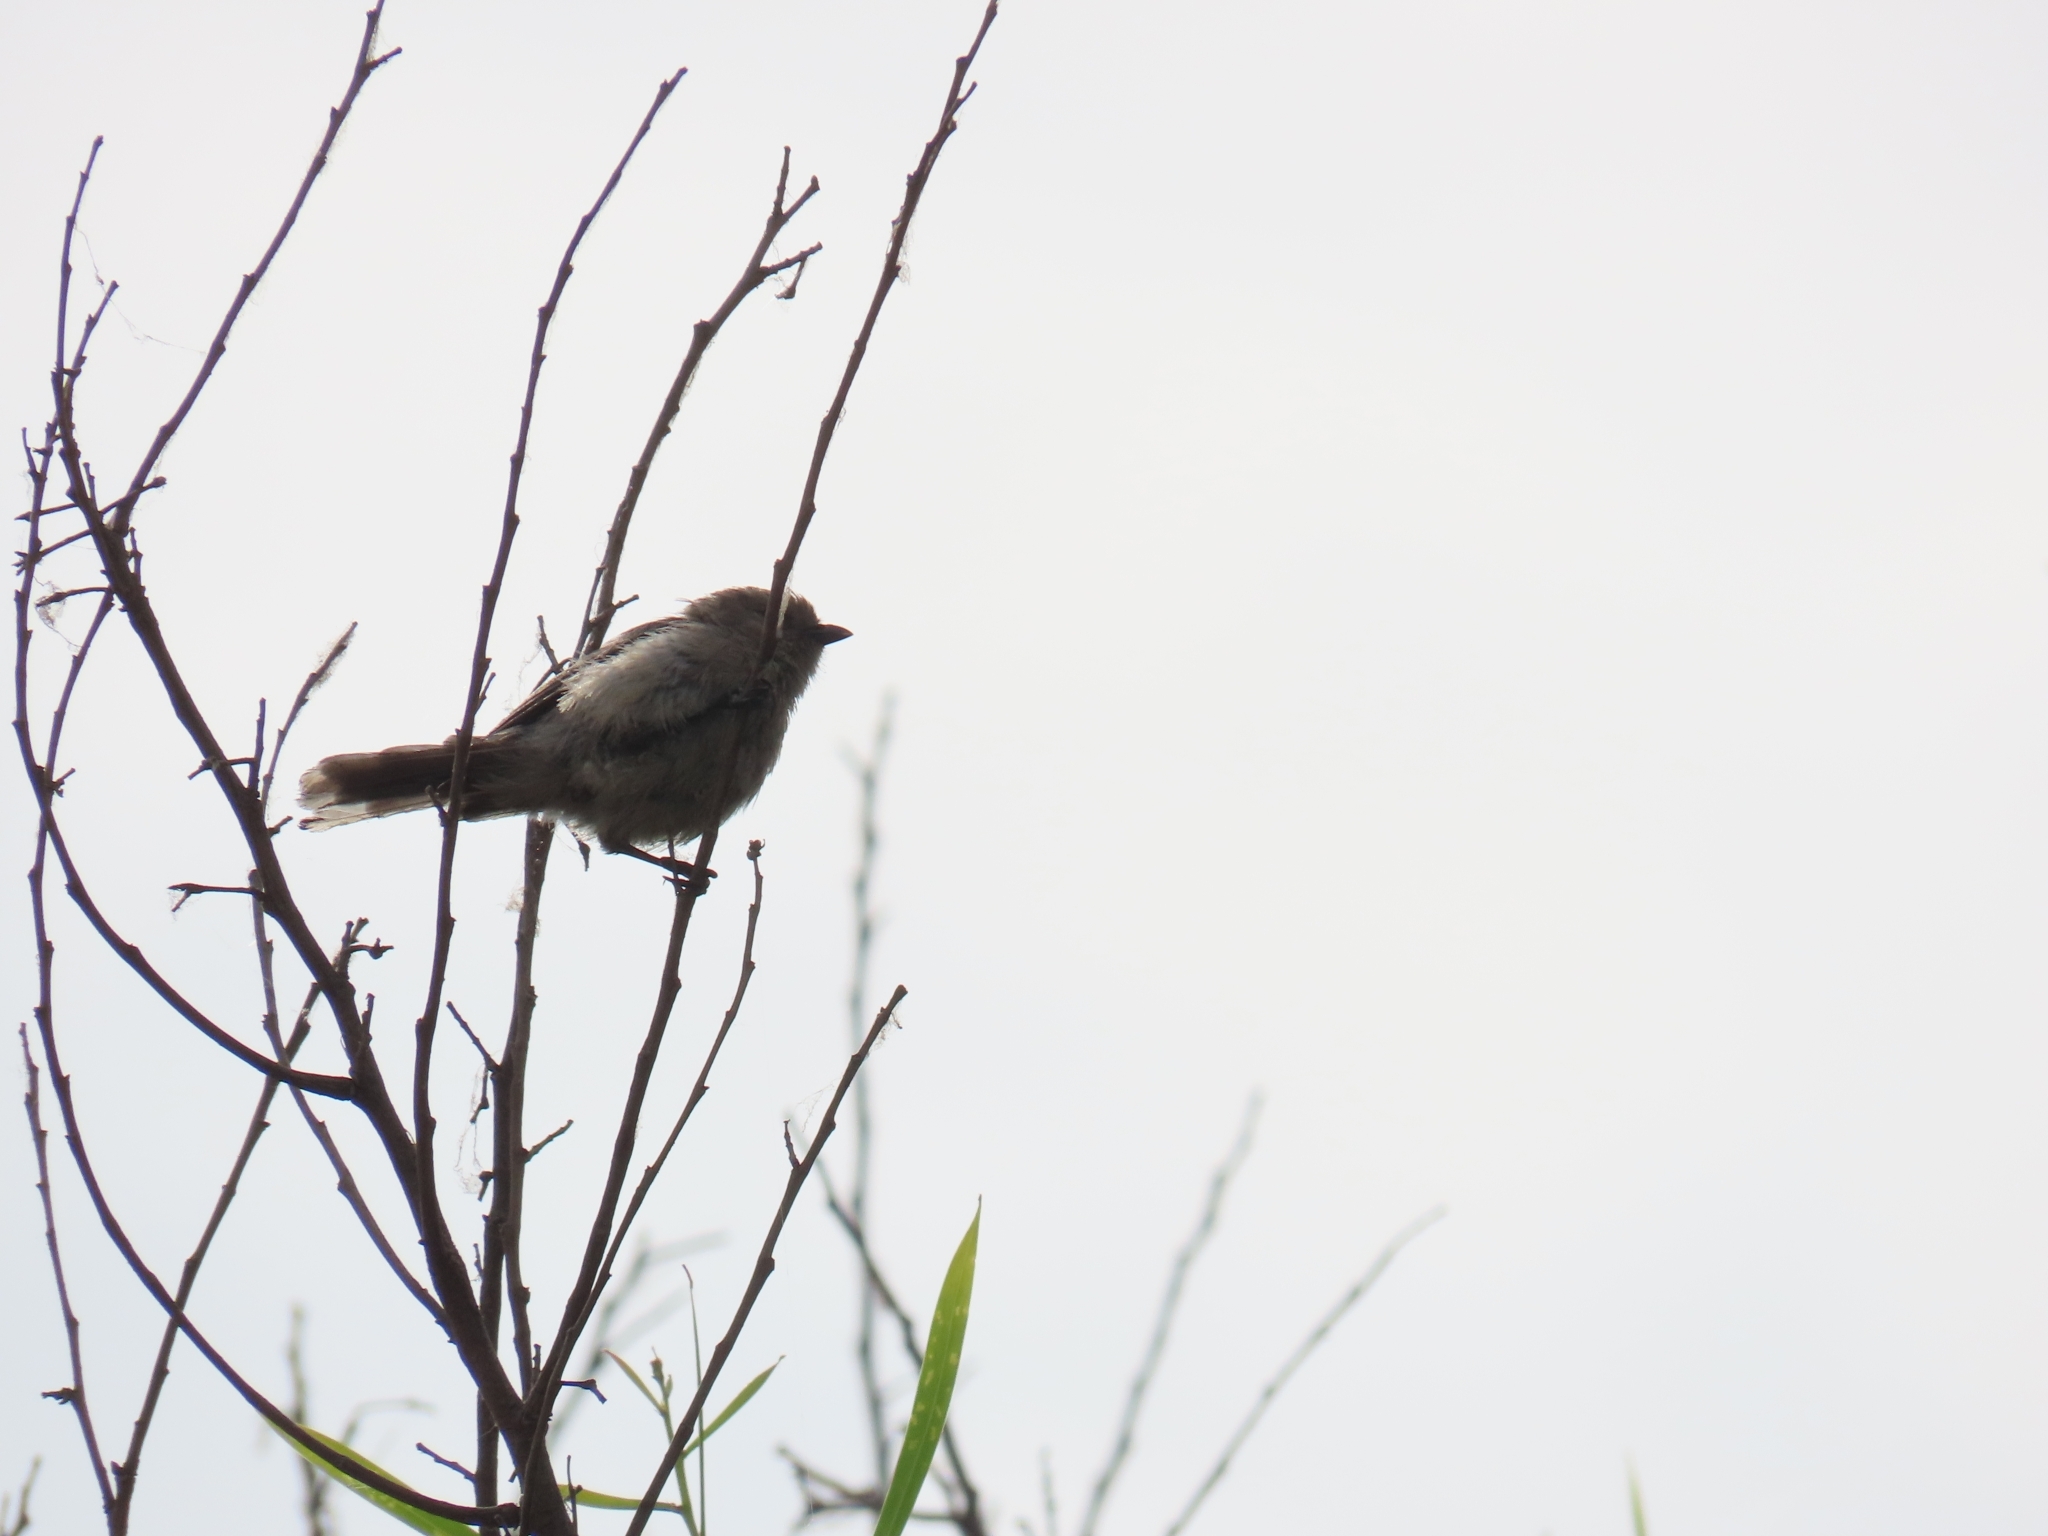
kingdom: Animalia
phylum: Chordata
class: Aves
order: Passeriformes
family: Aegithalidae
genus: Psaltriparus
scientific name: Psaltriparus minimus
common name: American bushtit
